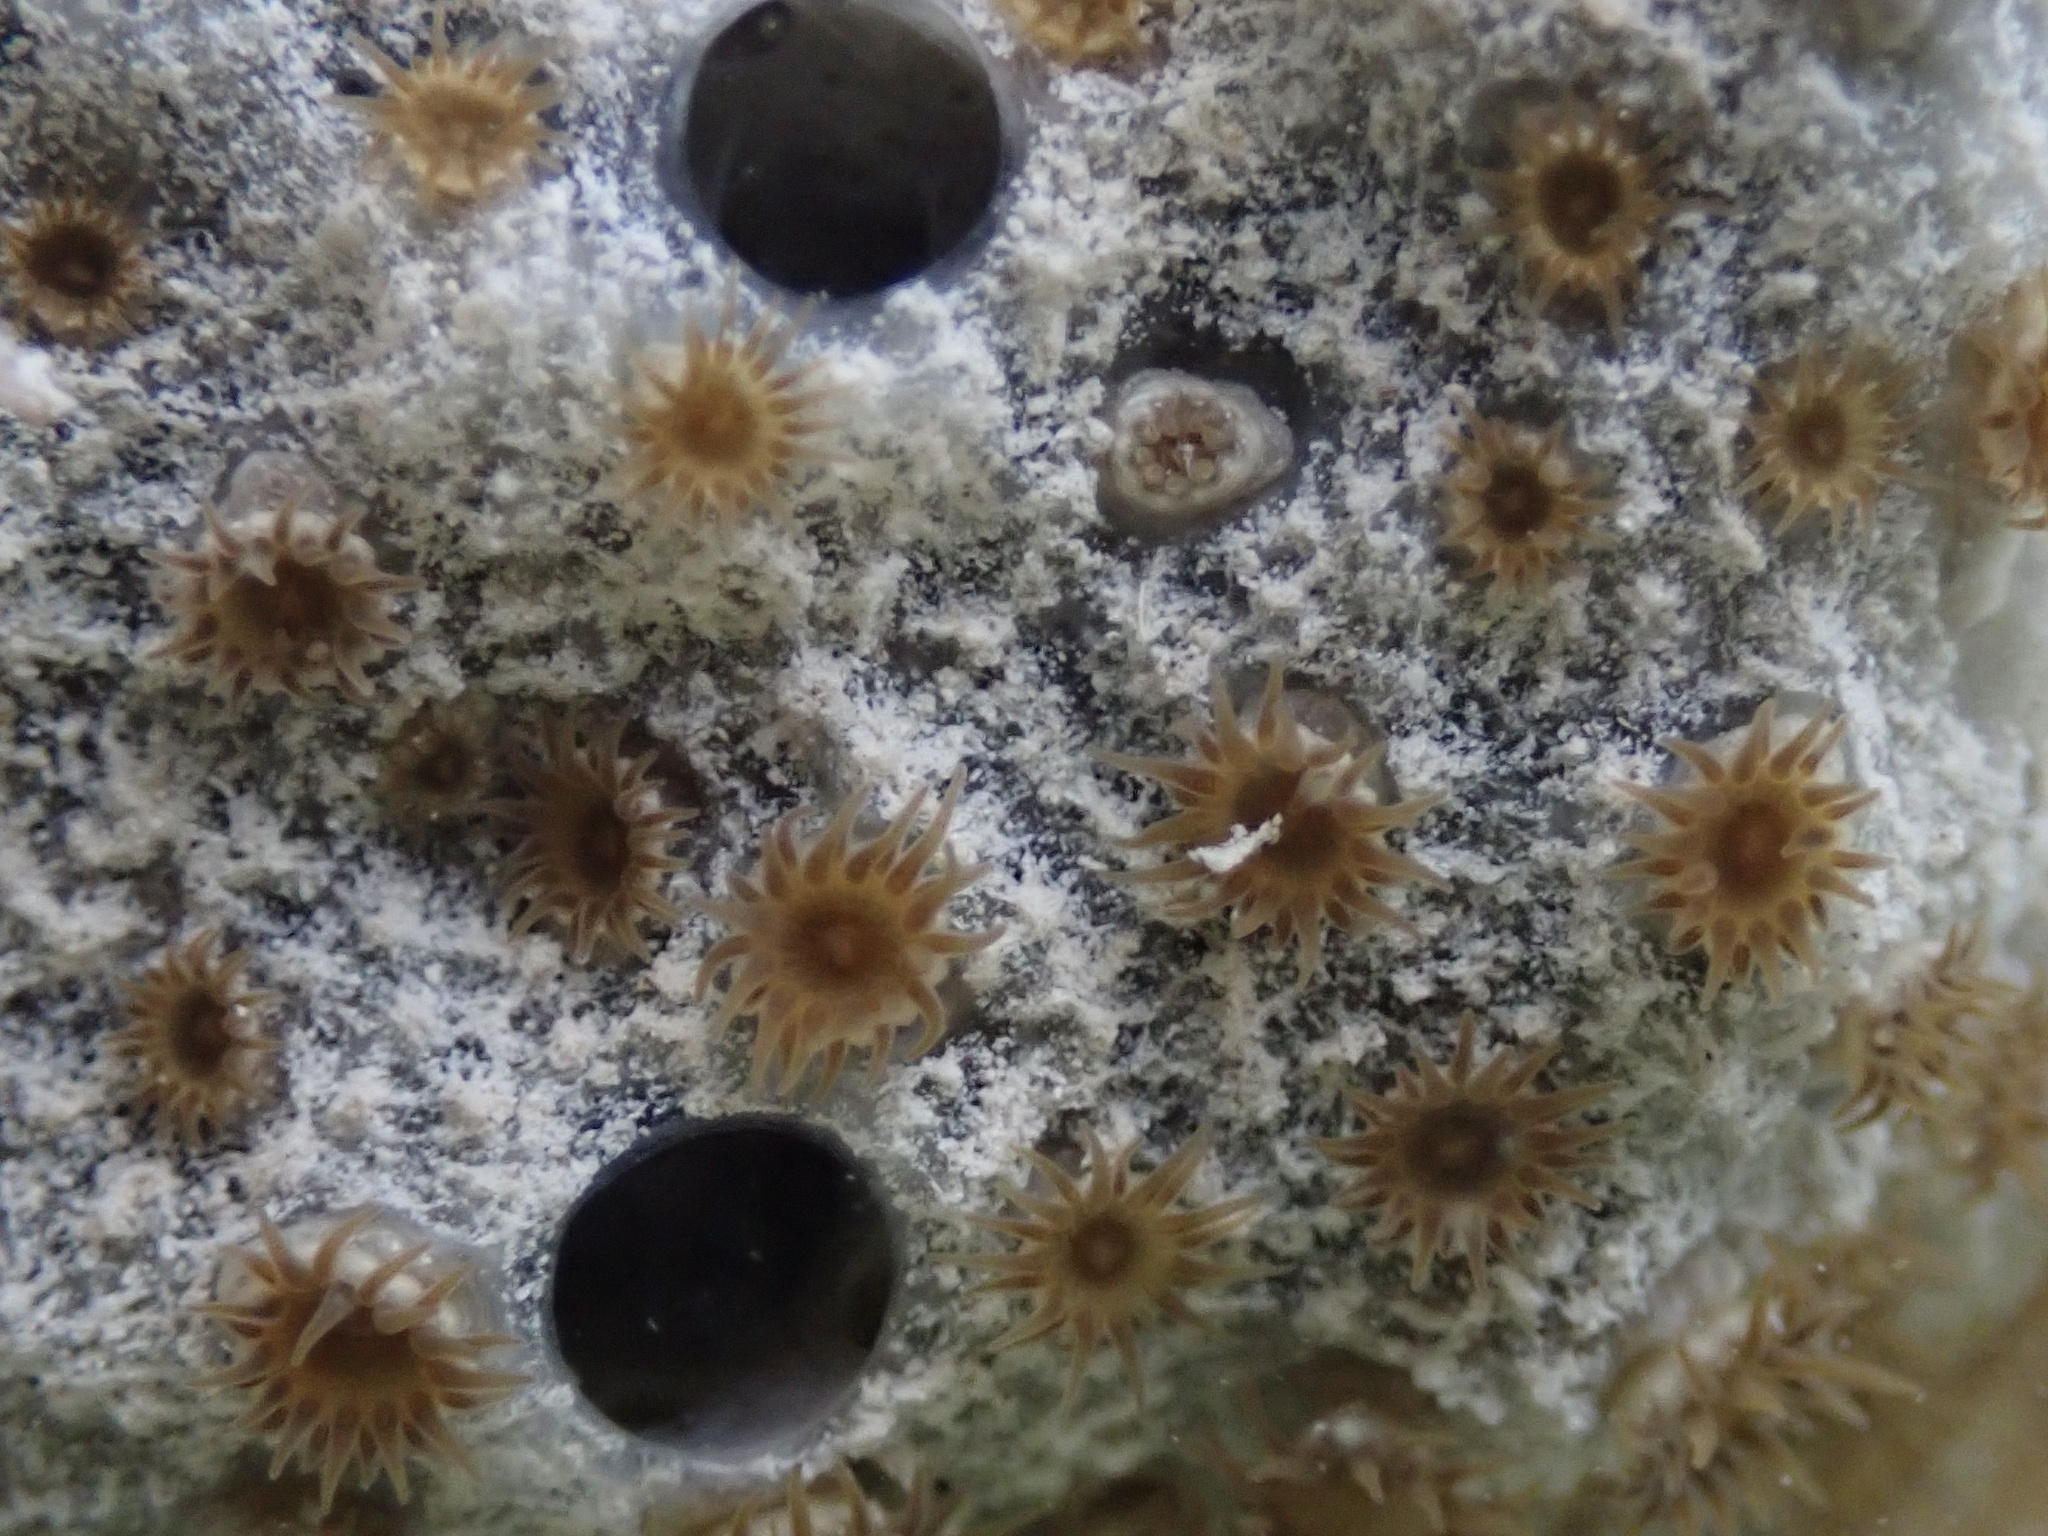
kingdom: Animalia
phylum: Cnidaria
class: Anthozoa
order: Zoantharia
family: Parazoanthidae
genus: Umimayanthus
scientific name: Umimayanthus parasiticus
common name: Sponge zoanthid
